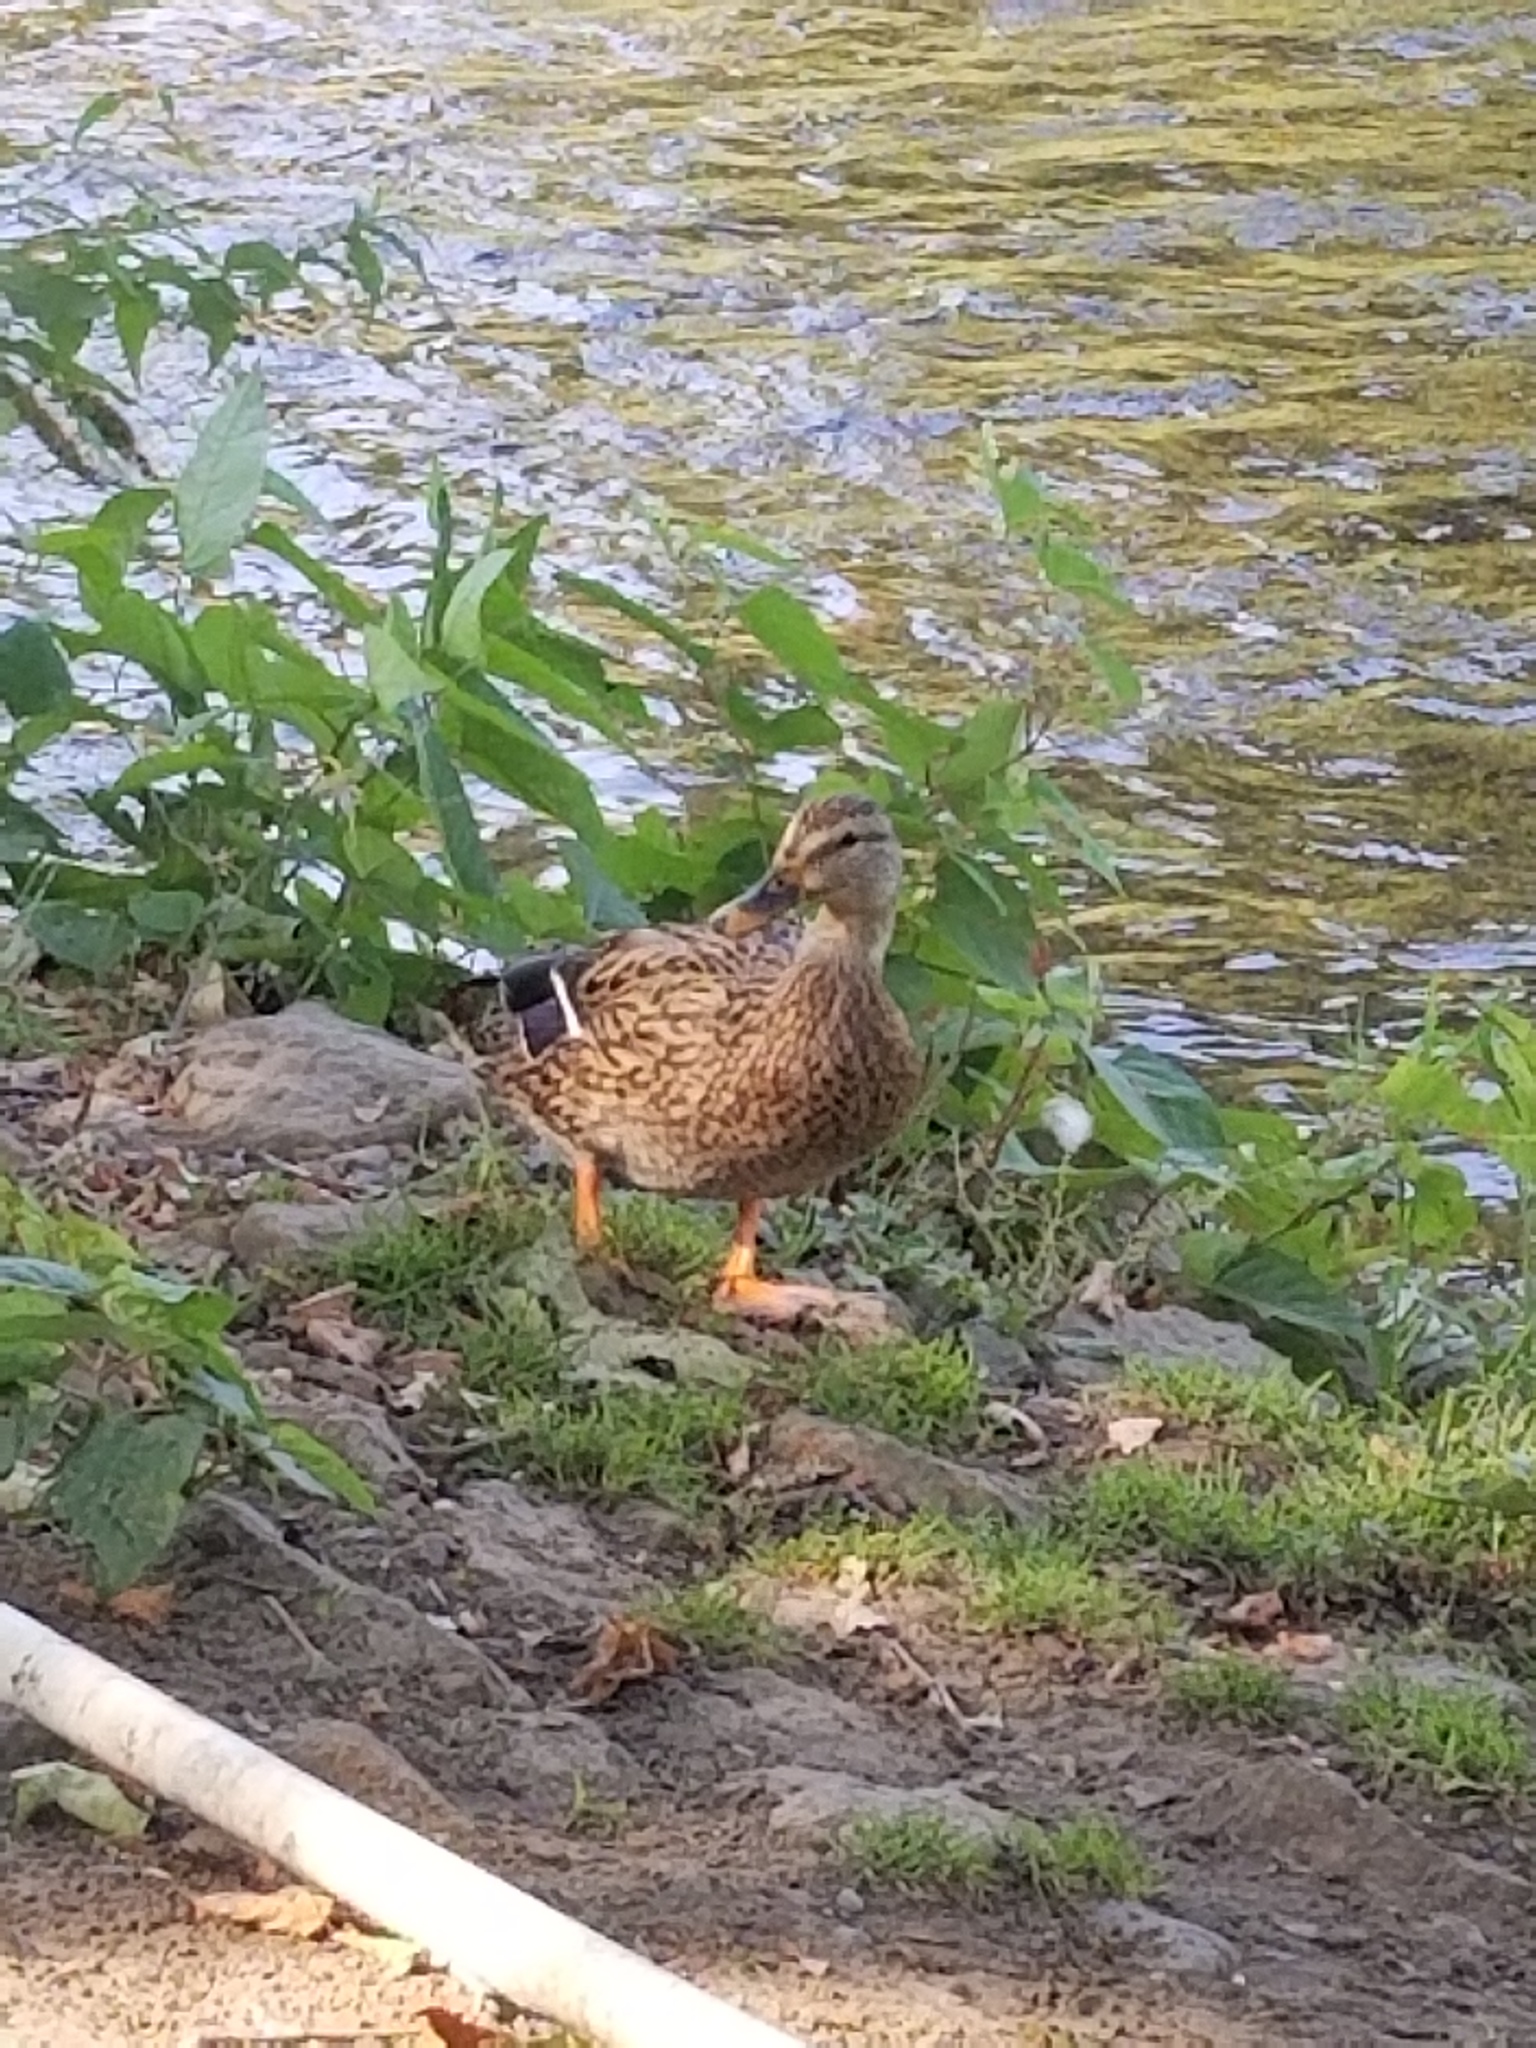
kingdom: Animalia
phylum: Chordata
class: Aves
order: Anseriformes
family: Anatidae
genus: Anas
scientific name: Anas platyrhynchos
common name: Mallard
